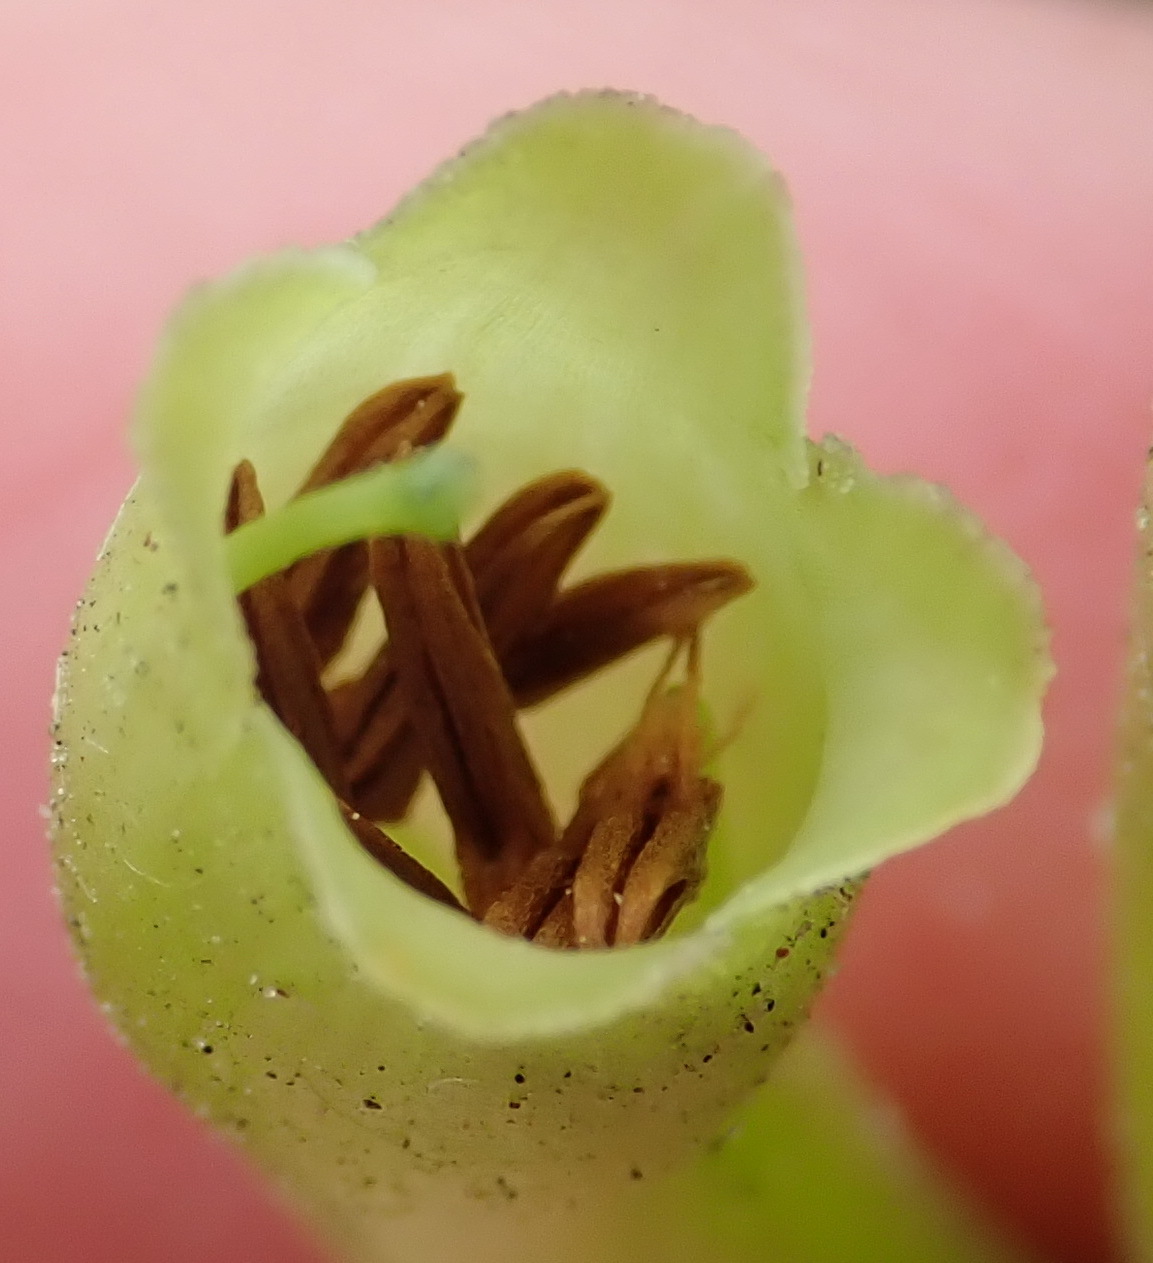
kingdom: Plantae
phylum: Tracheophyta
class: Magnoliopsida
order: Ericales
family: Ericaceae
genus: Erica
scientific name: Erica discolor
